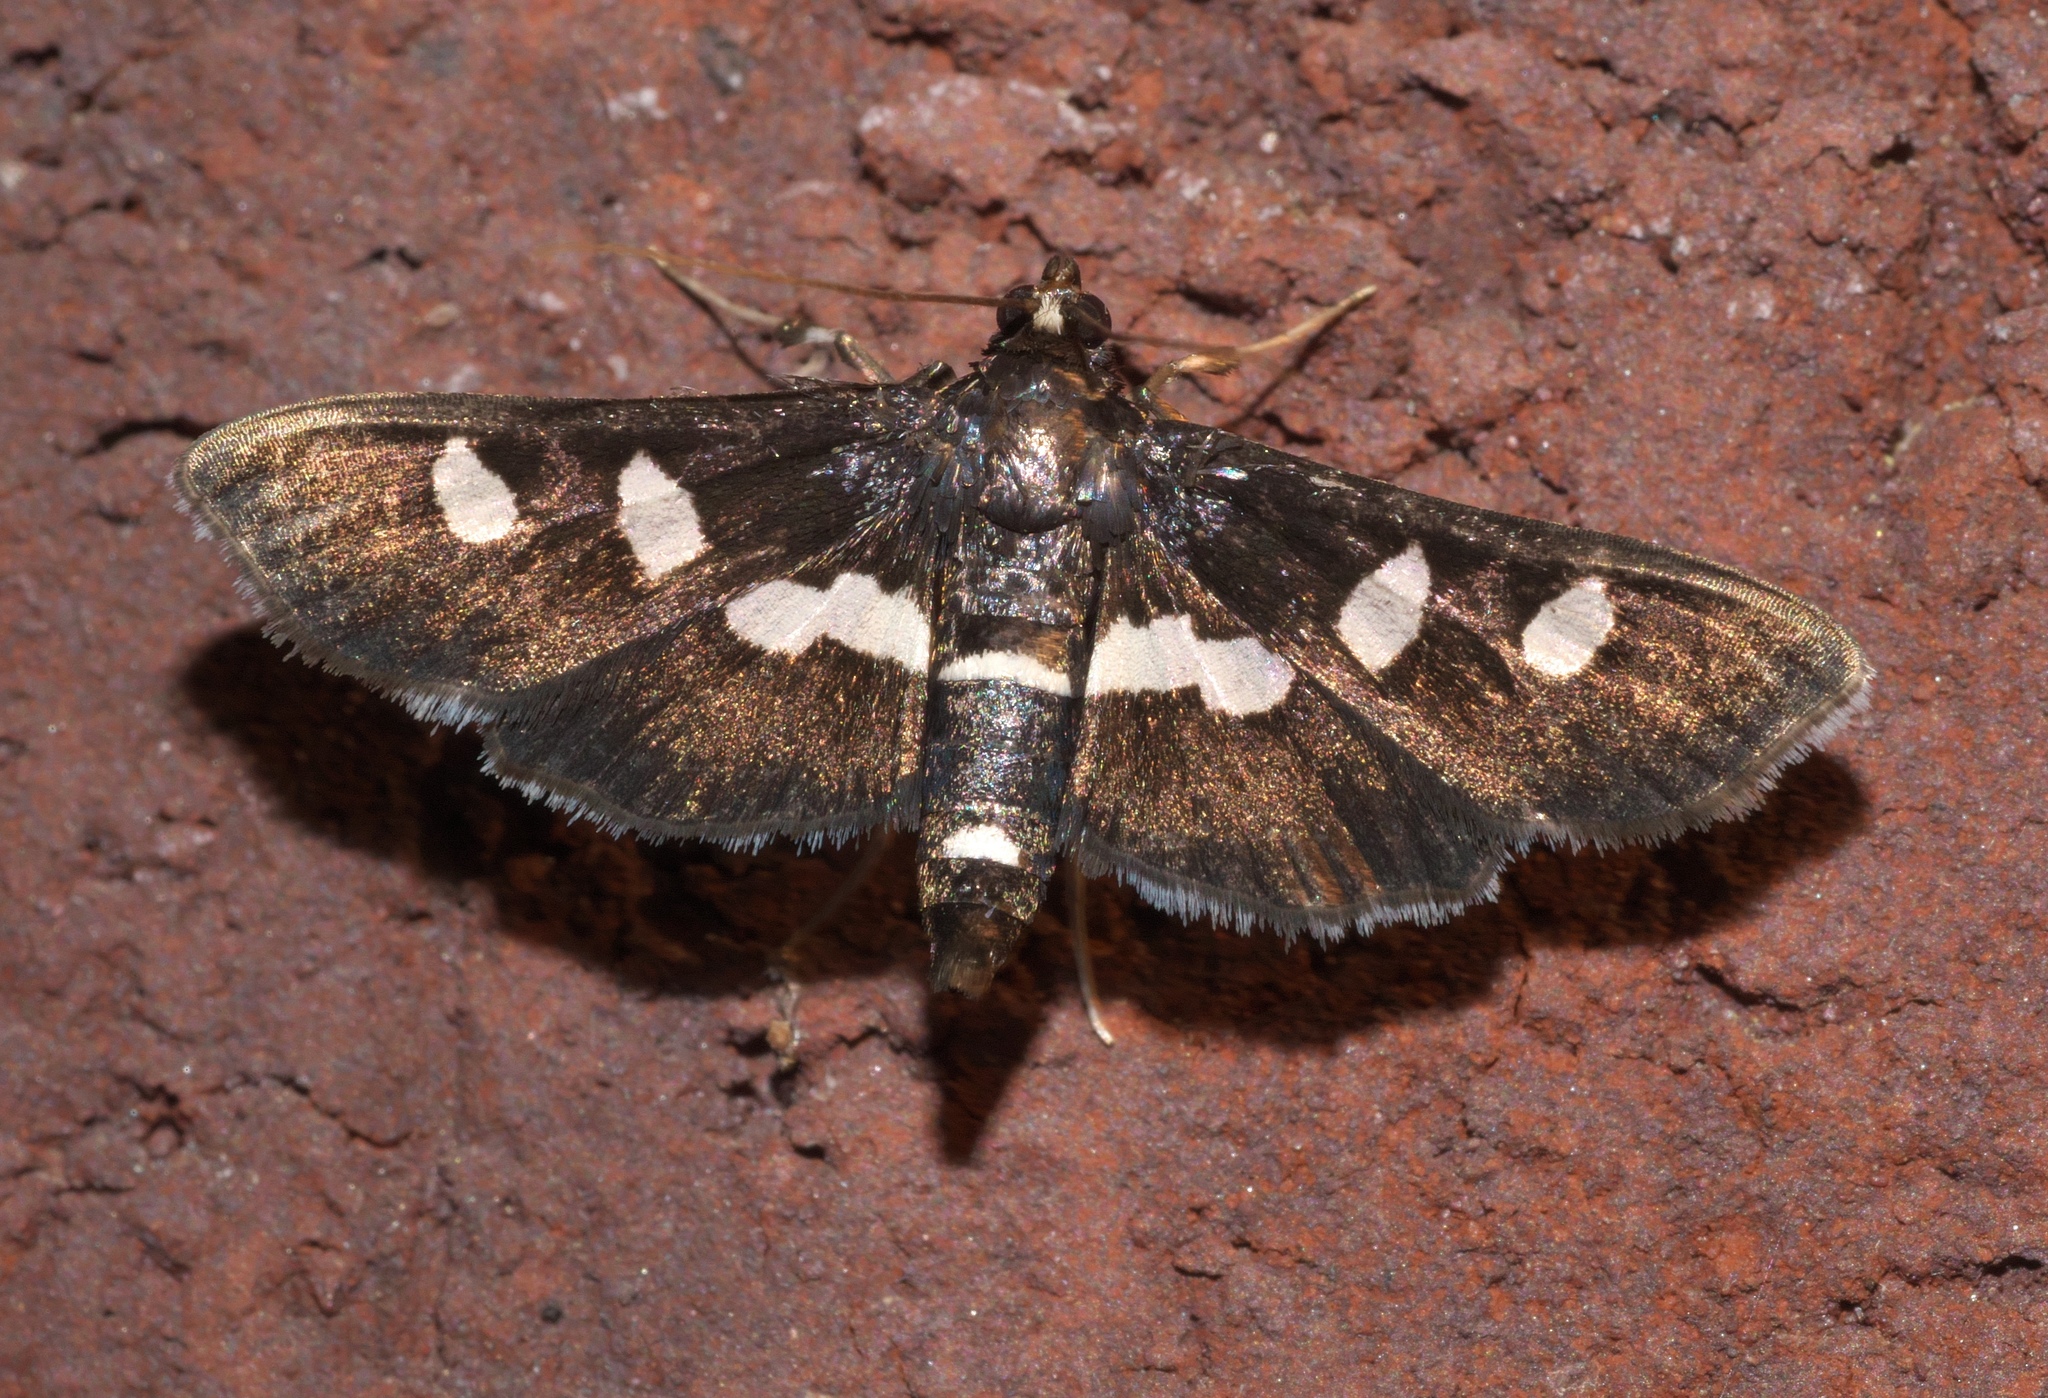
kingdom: Animalia
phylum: Arthropoda
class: Insecta
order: Lepidoptera
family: Crambidae
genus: Desmia
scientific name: Desmia
